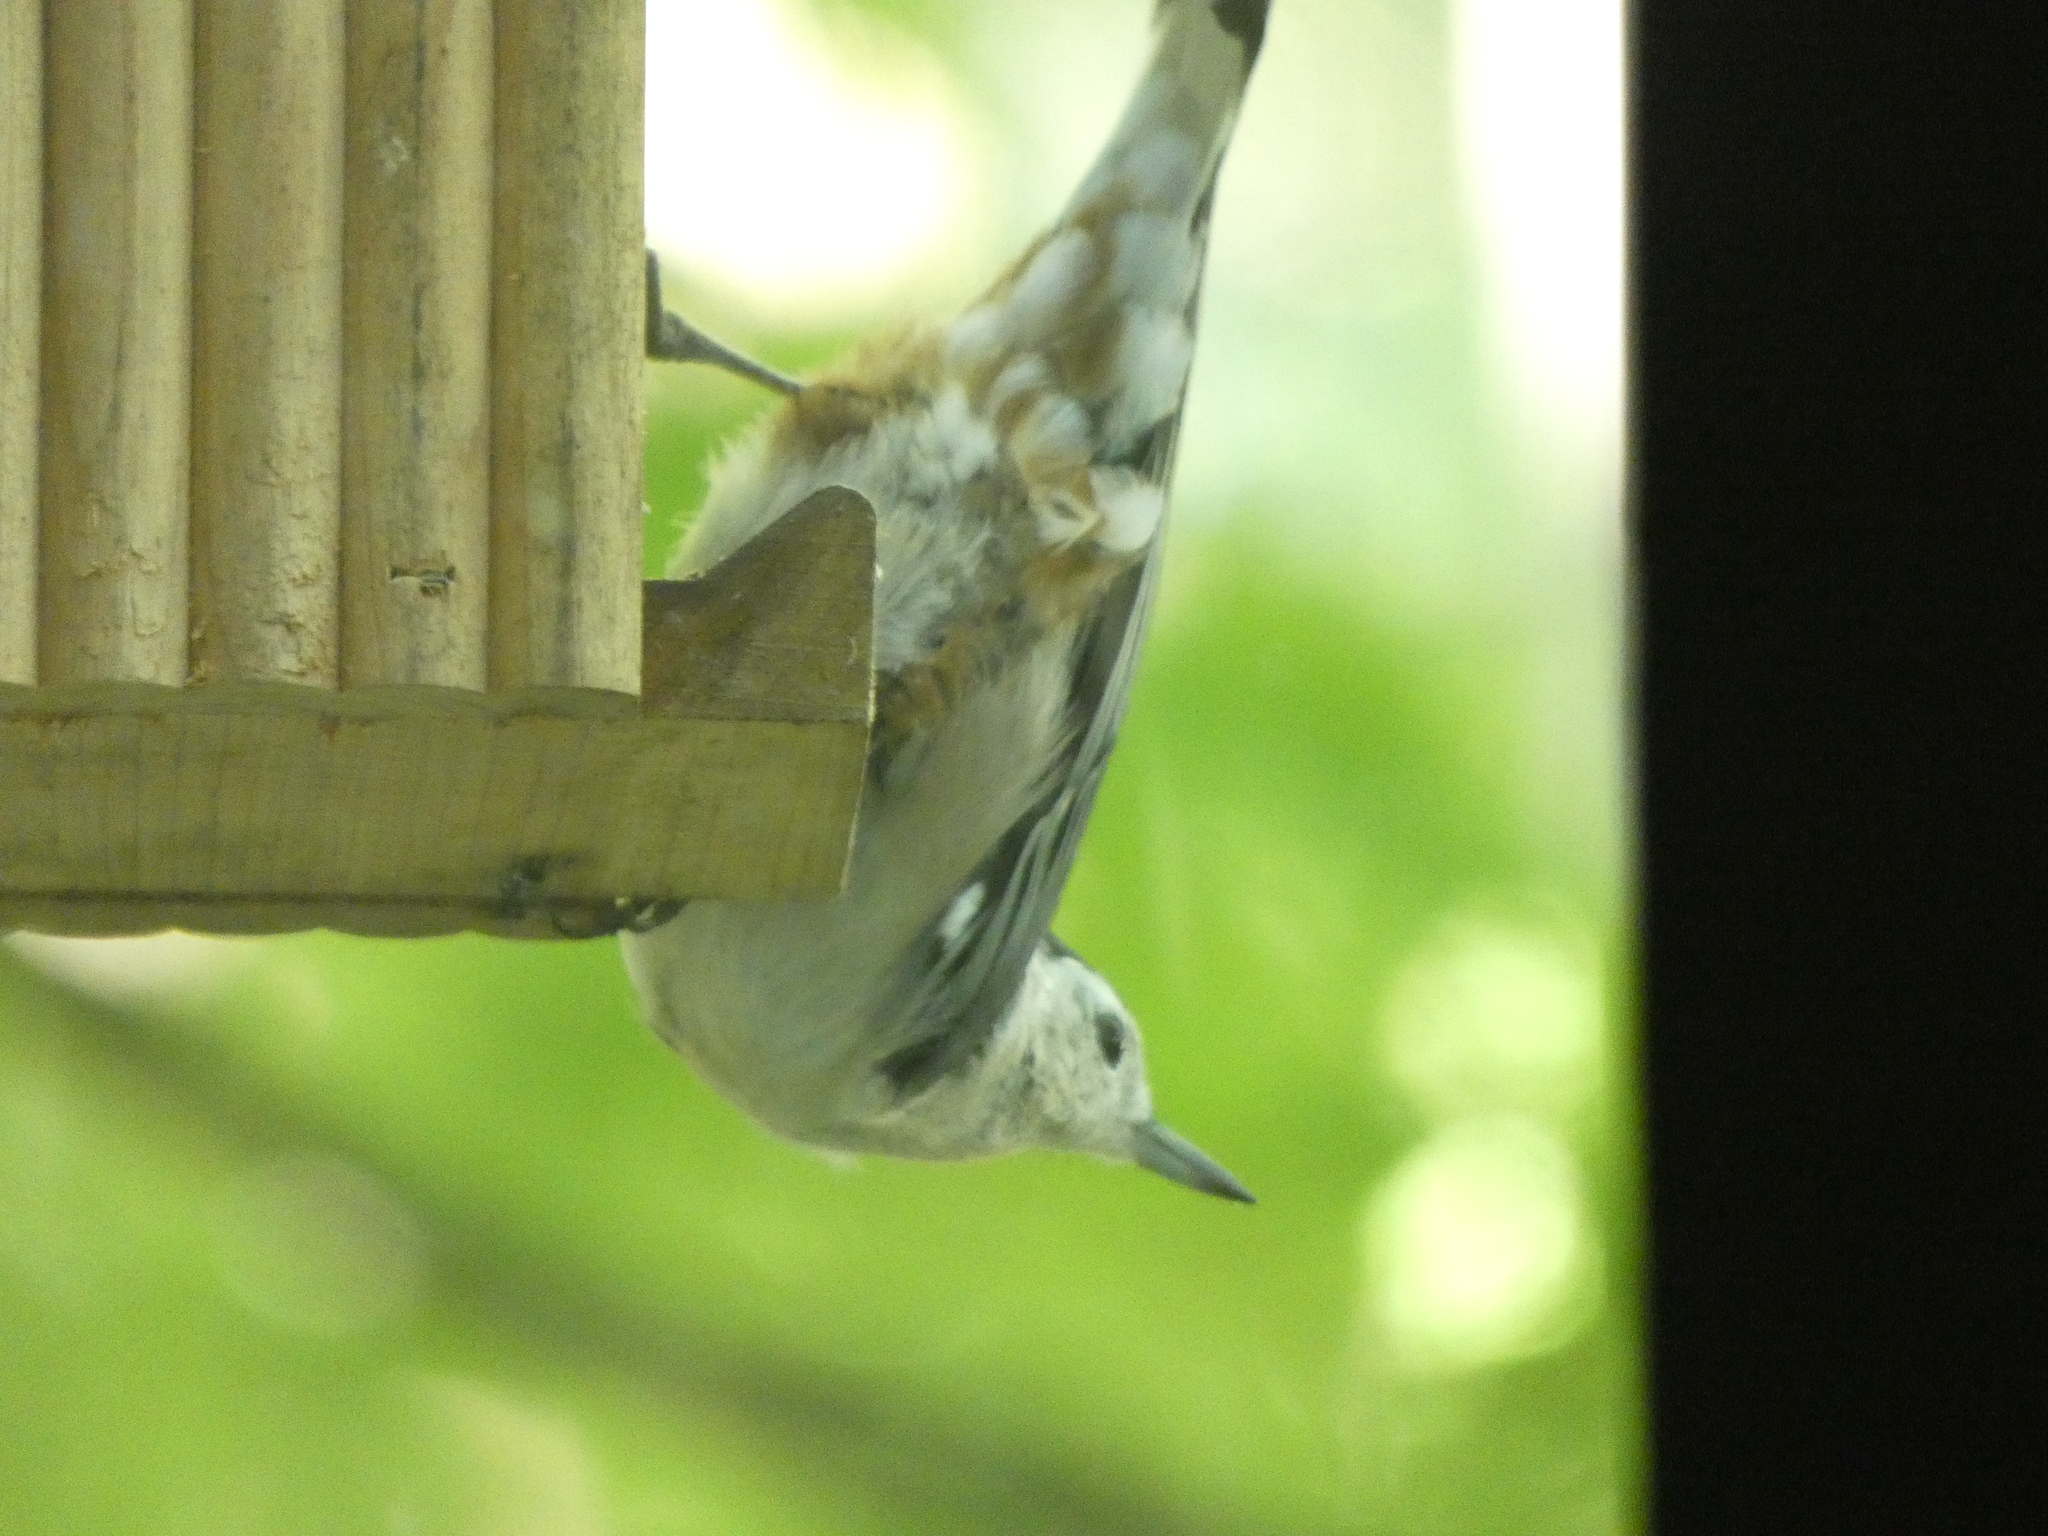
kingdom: Animalia
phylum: Chordata
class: Aves
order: Passeriformes
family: Sittidae
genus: Sitta
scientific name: Sitta carolinensis
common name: White-breasted nuthatch
